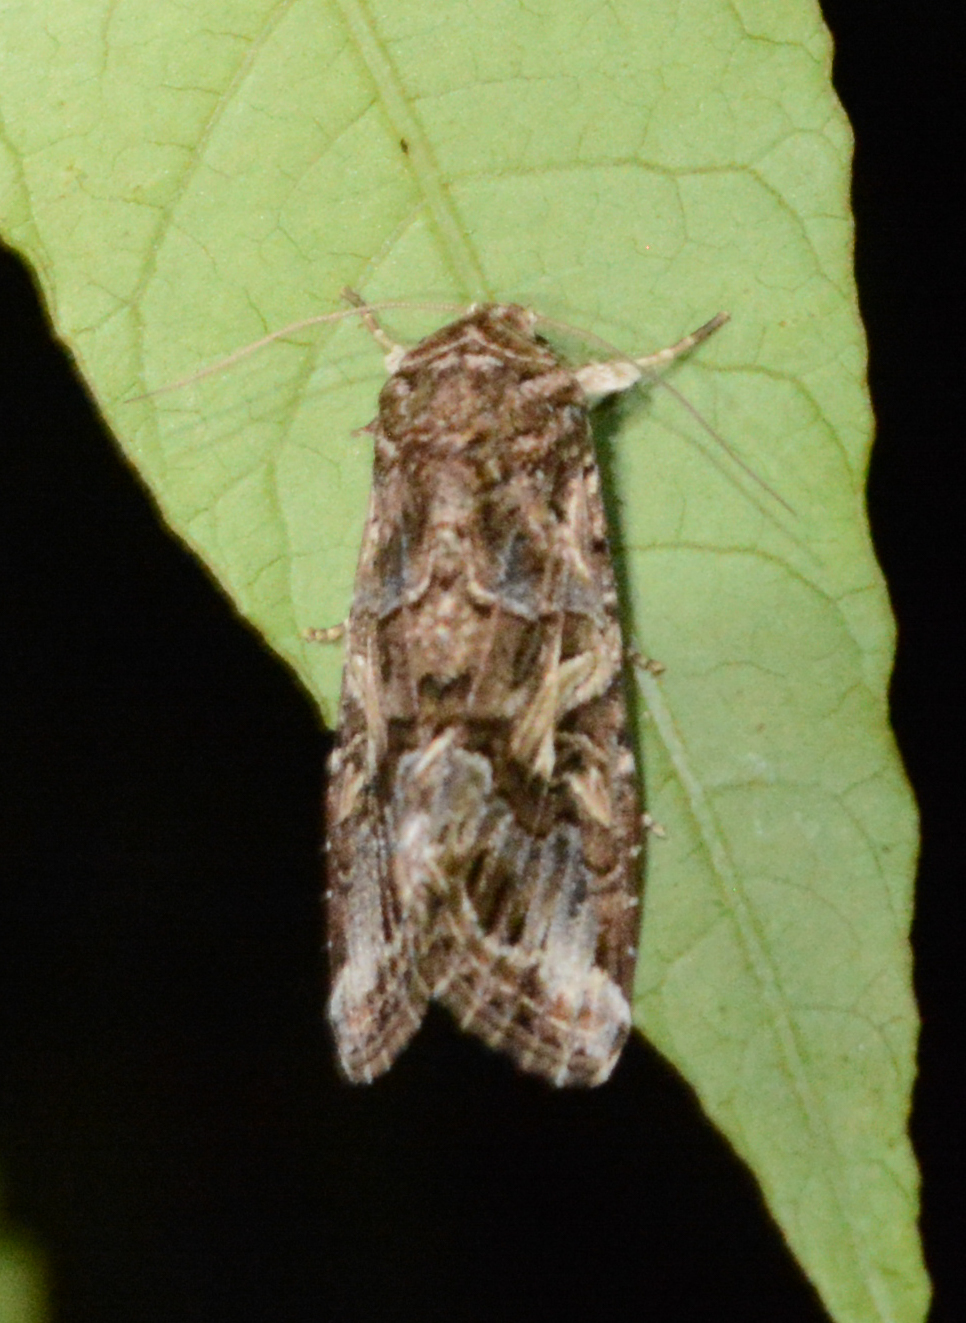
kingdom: Animalia
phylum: Arthropoda
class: Insecta
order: Lepidoptera
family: Noctuidae
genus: Spodoptera
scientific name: Spodoptera ornithogalli
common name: Yellow-striped armyworm
